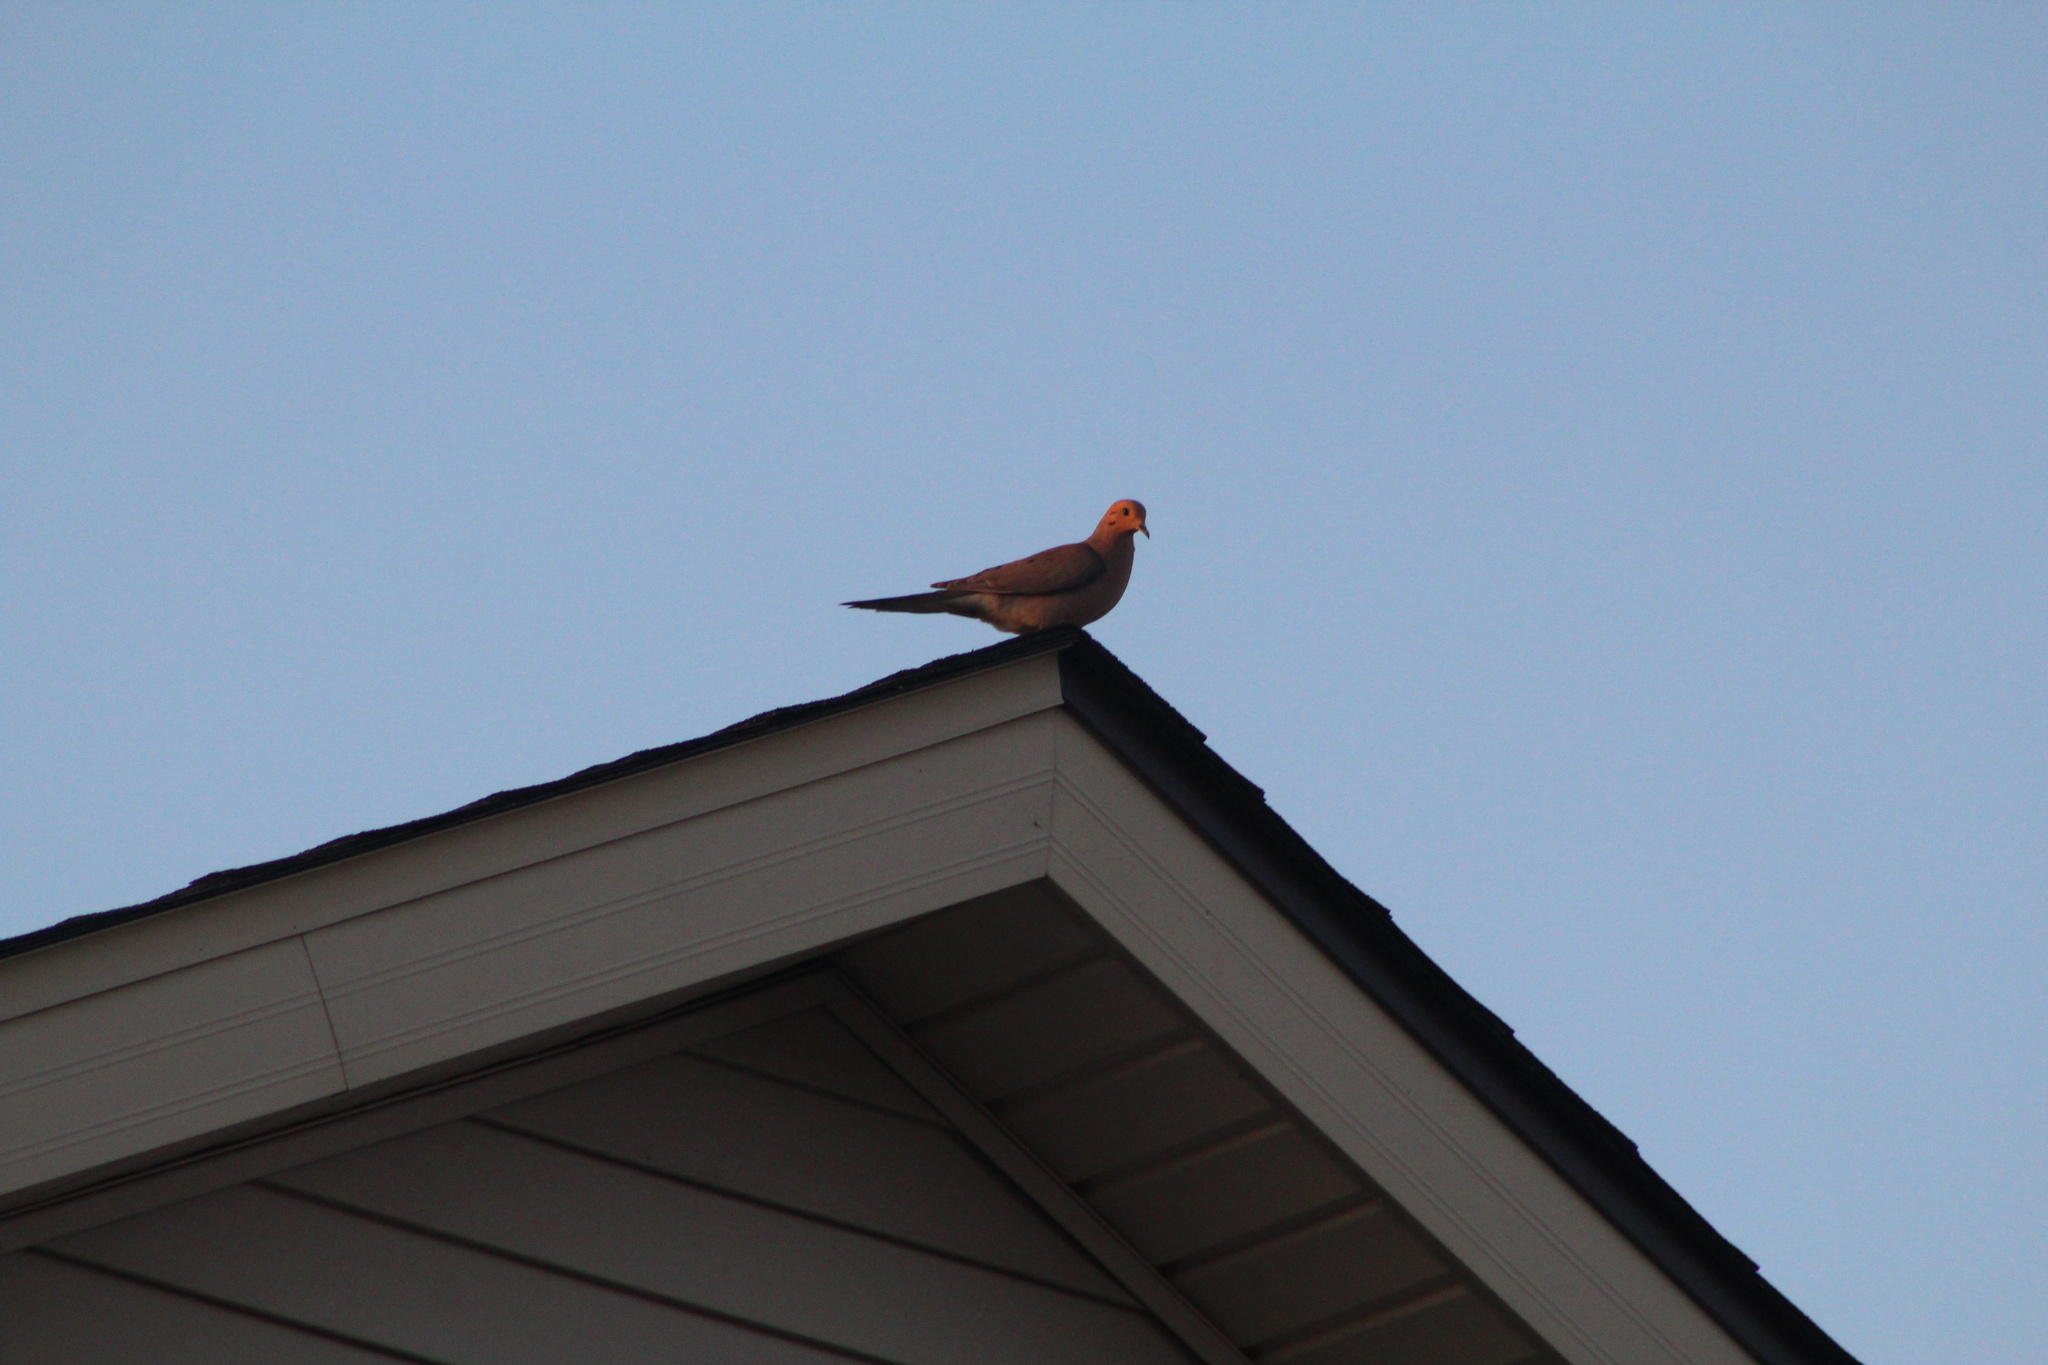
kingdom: Animalia
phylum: Chordata
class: Aves
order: Columbiformes
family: Columbidae
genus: Zenaida
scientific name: Zenaida macroura
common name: Mourning dove
